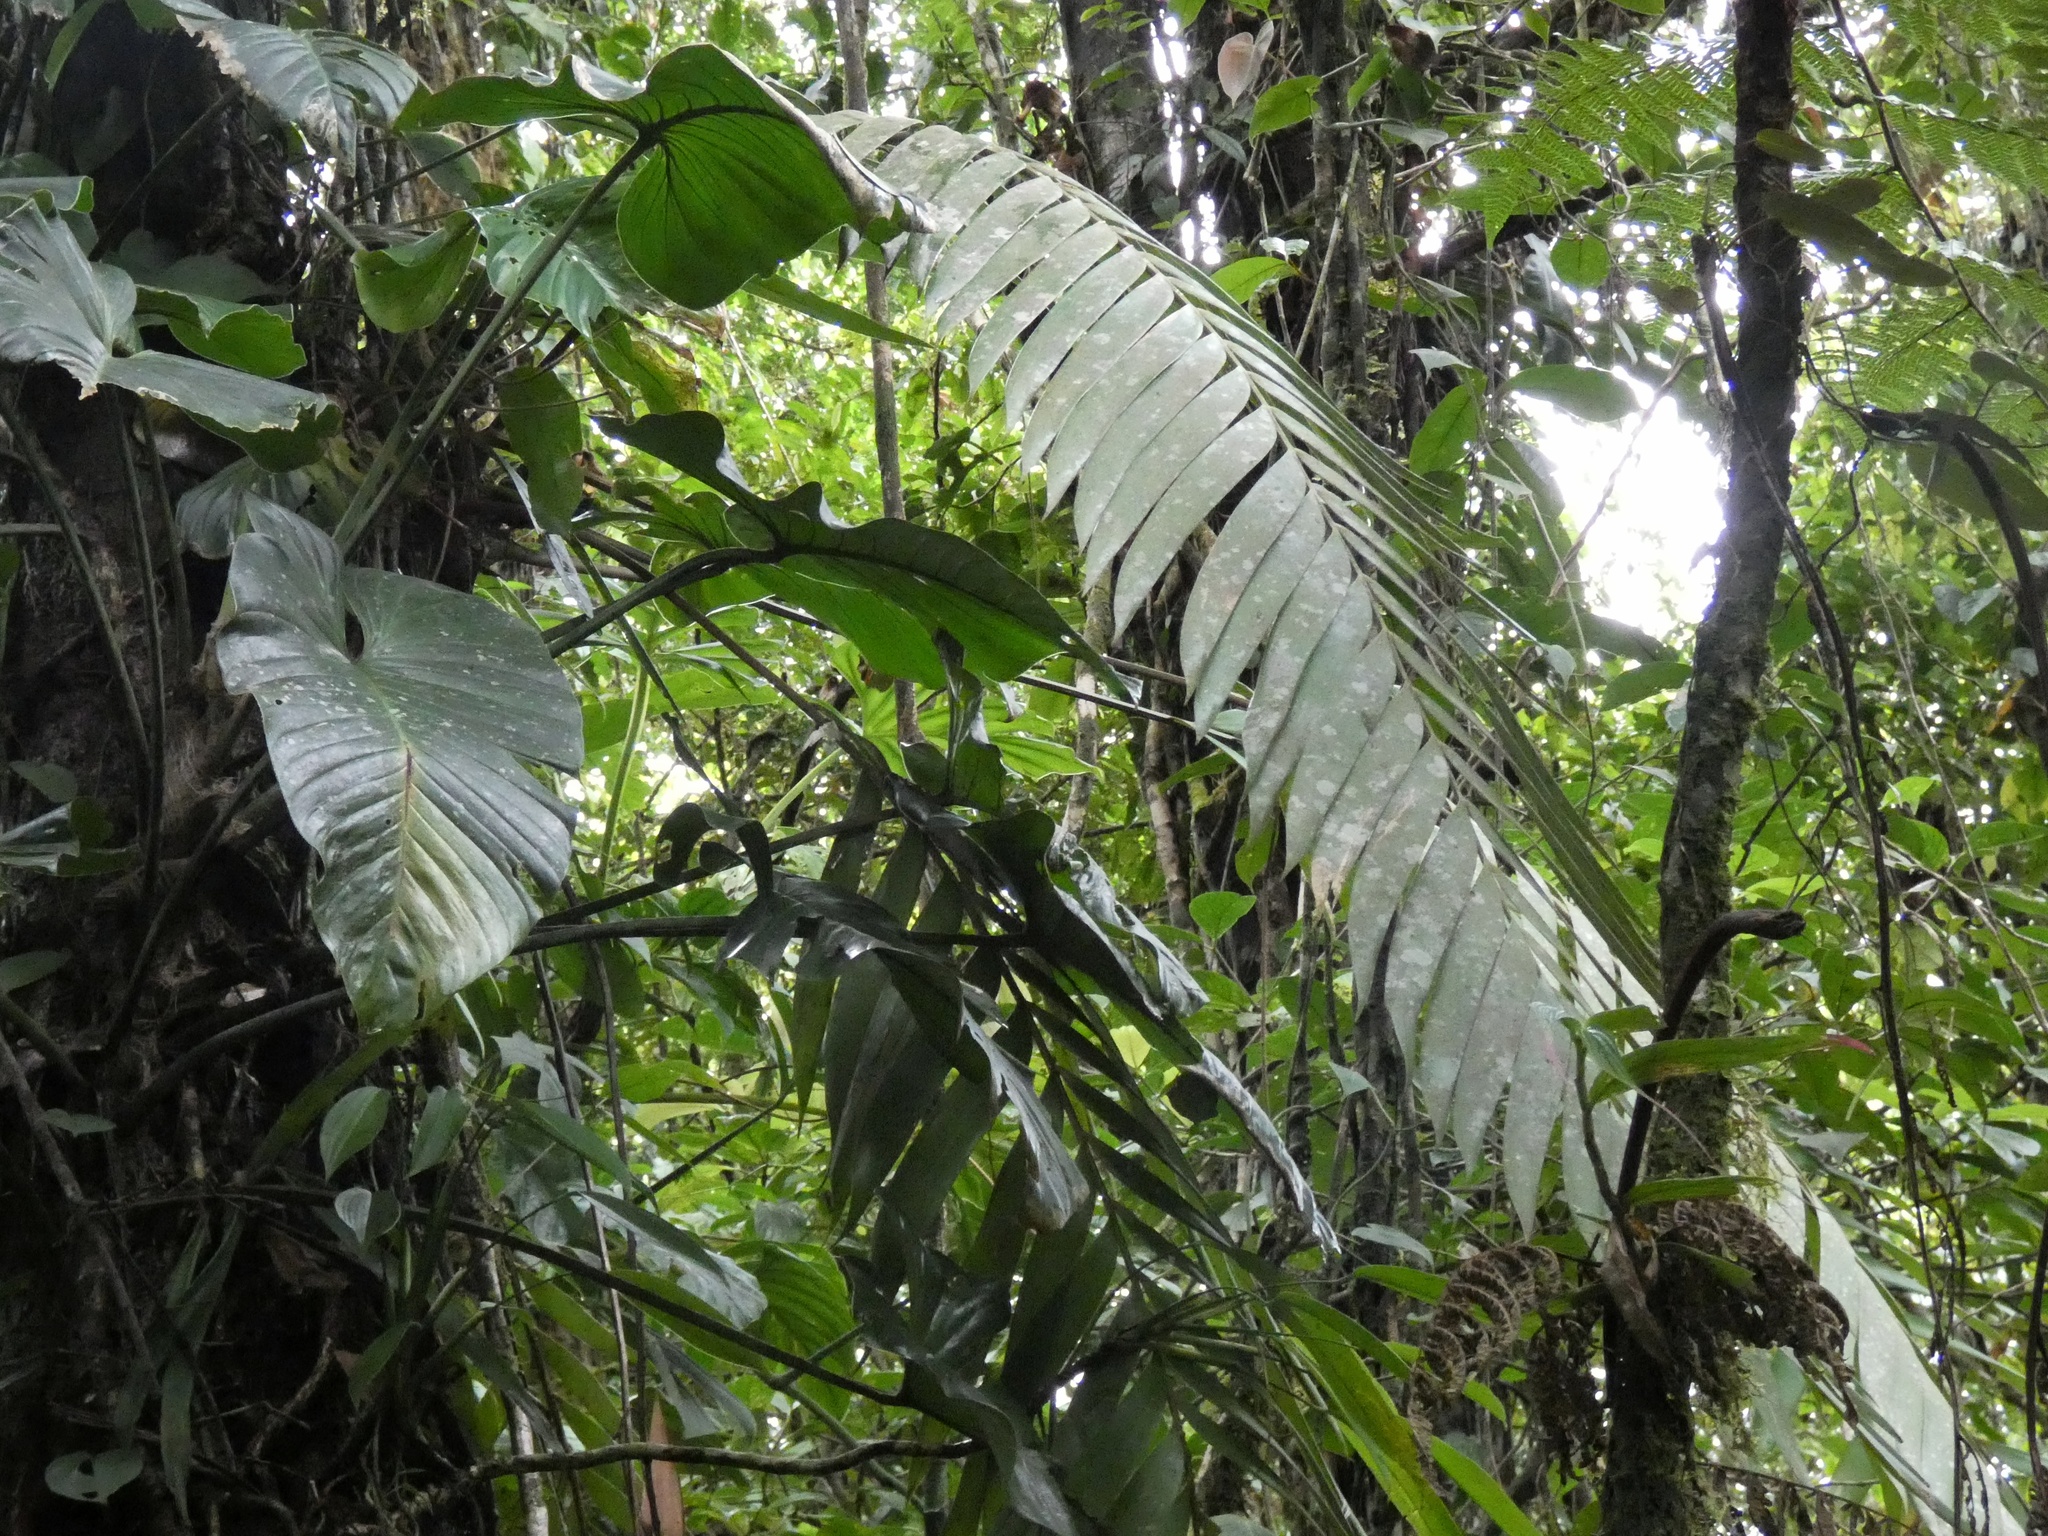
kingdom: Plantae
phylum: Tracheophyta
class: Cycadopsida
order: Cycadales
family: Zamiaceae
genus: Zamia
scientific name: Zamia pseudoparasitica
